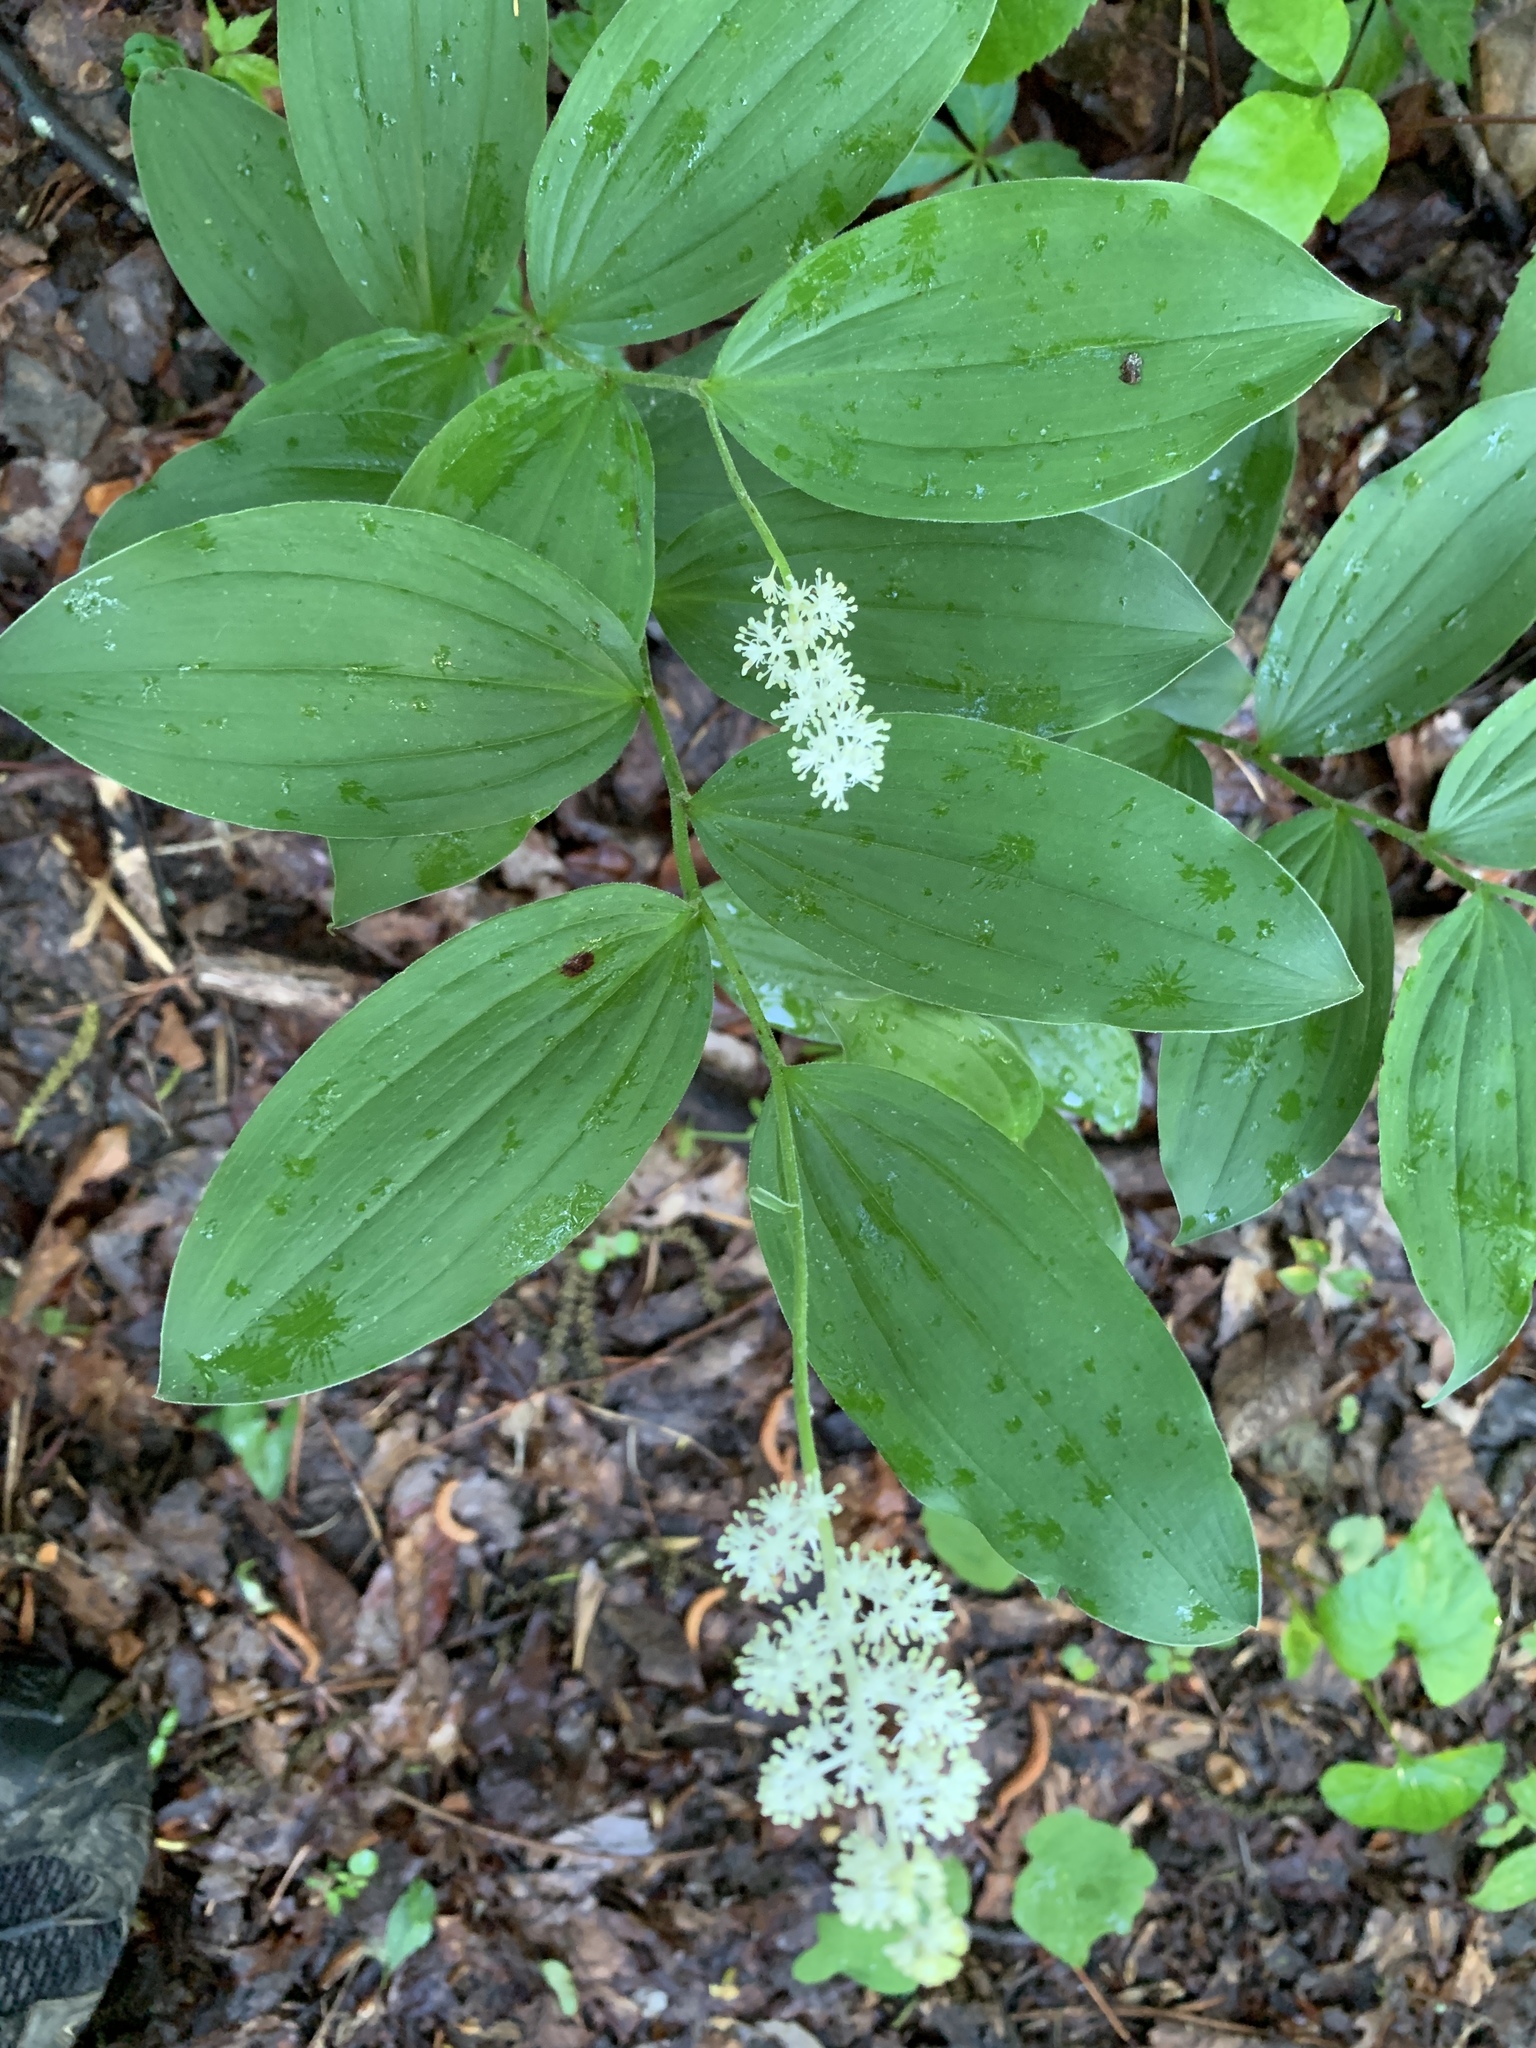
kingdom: Plantae
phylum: Tracheophyta
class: Liliopsida
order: Asparagales
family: Asparagaceae
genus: Maianthemum
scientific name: Maianthemum racemosum
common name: False spikenard
